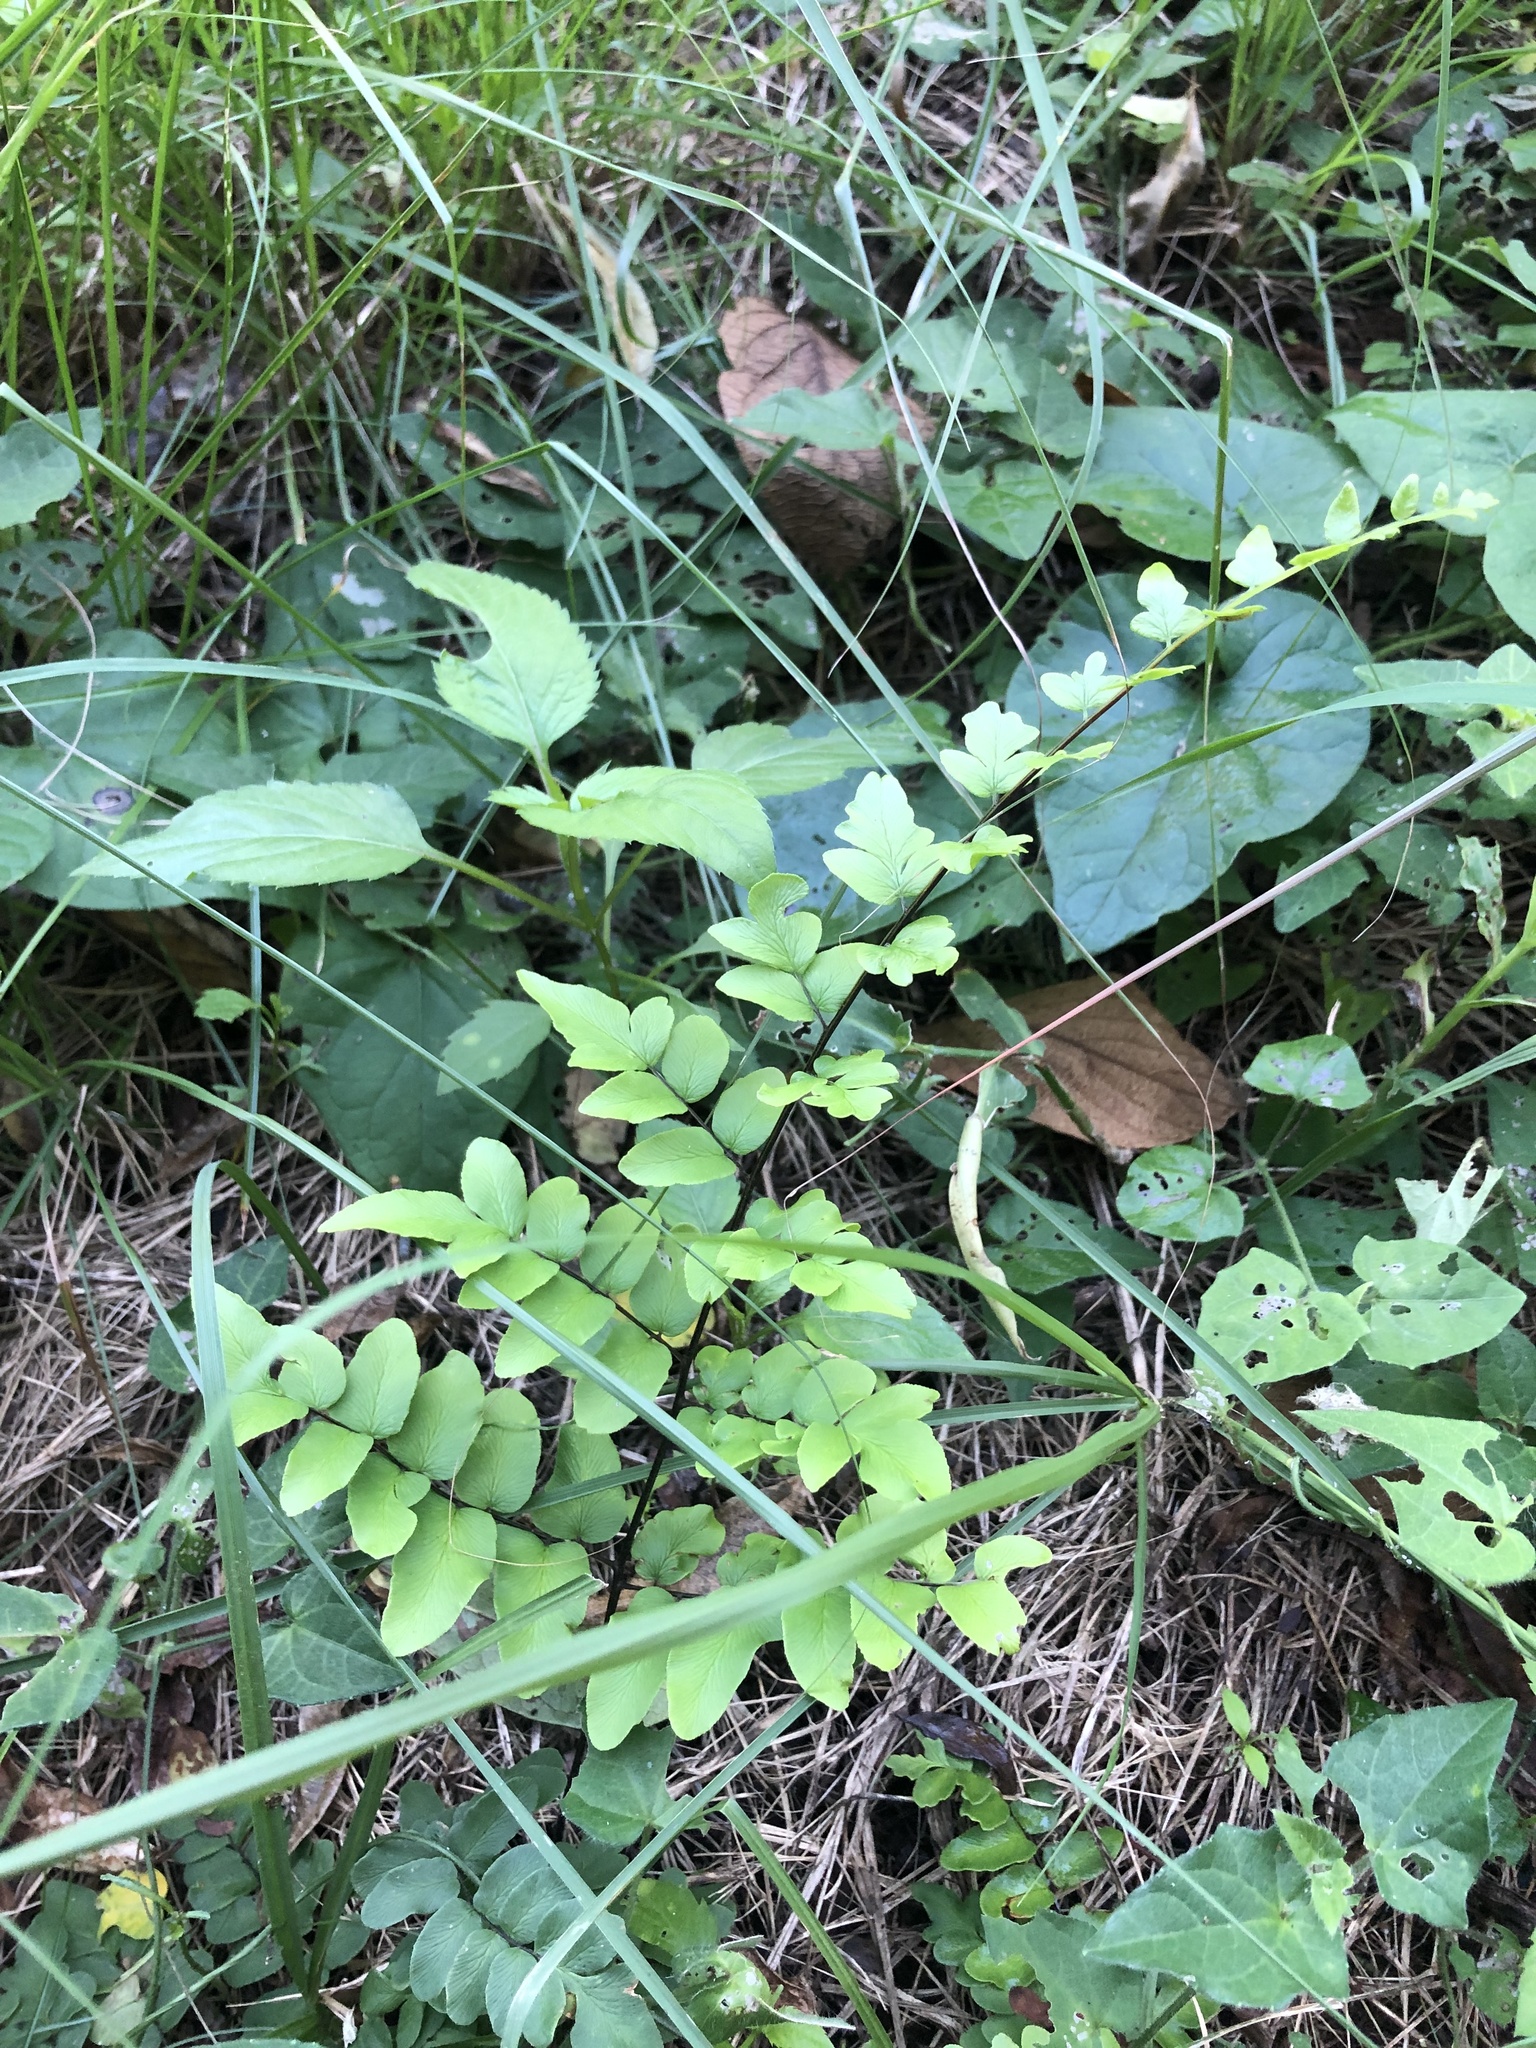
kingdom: Plantae
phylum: Tracheophyta
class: Polypodiopsida
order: Polypodiales
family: Pteridaceae
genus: Cheilanthes
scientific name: Cheilanthes viridis
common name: Green cliffbrake
